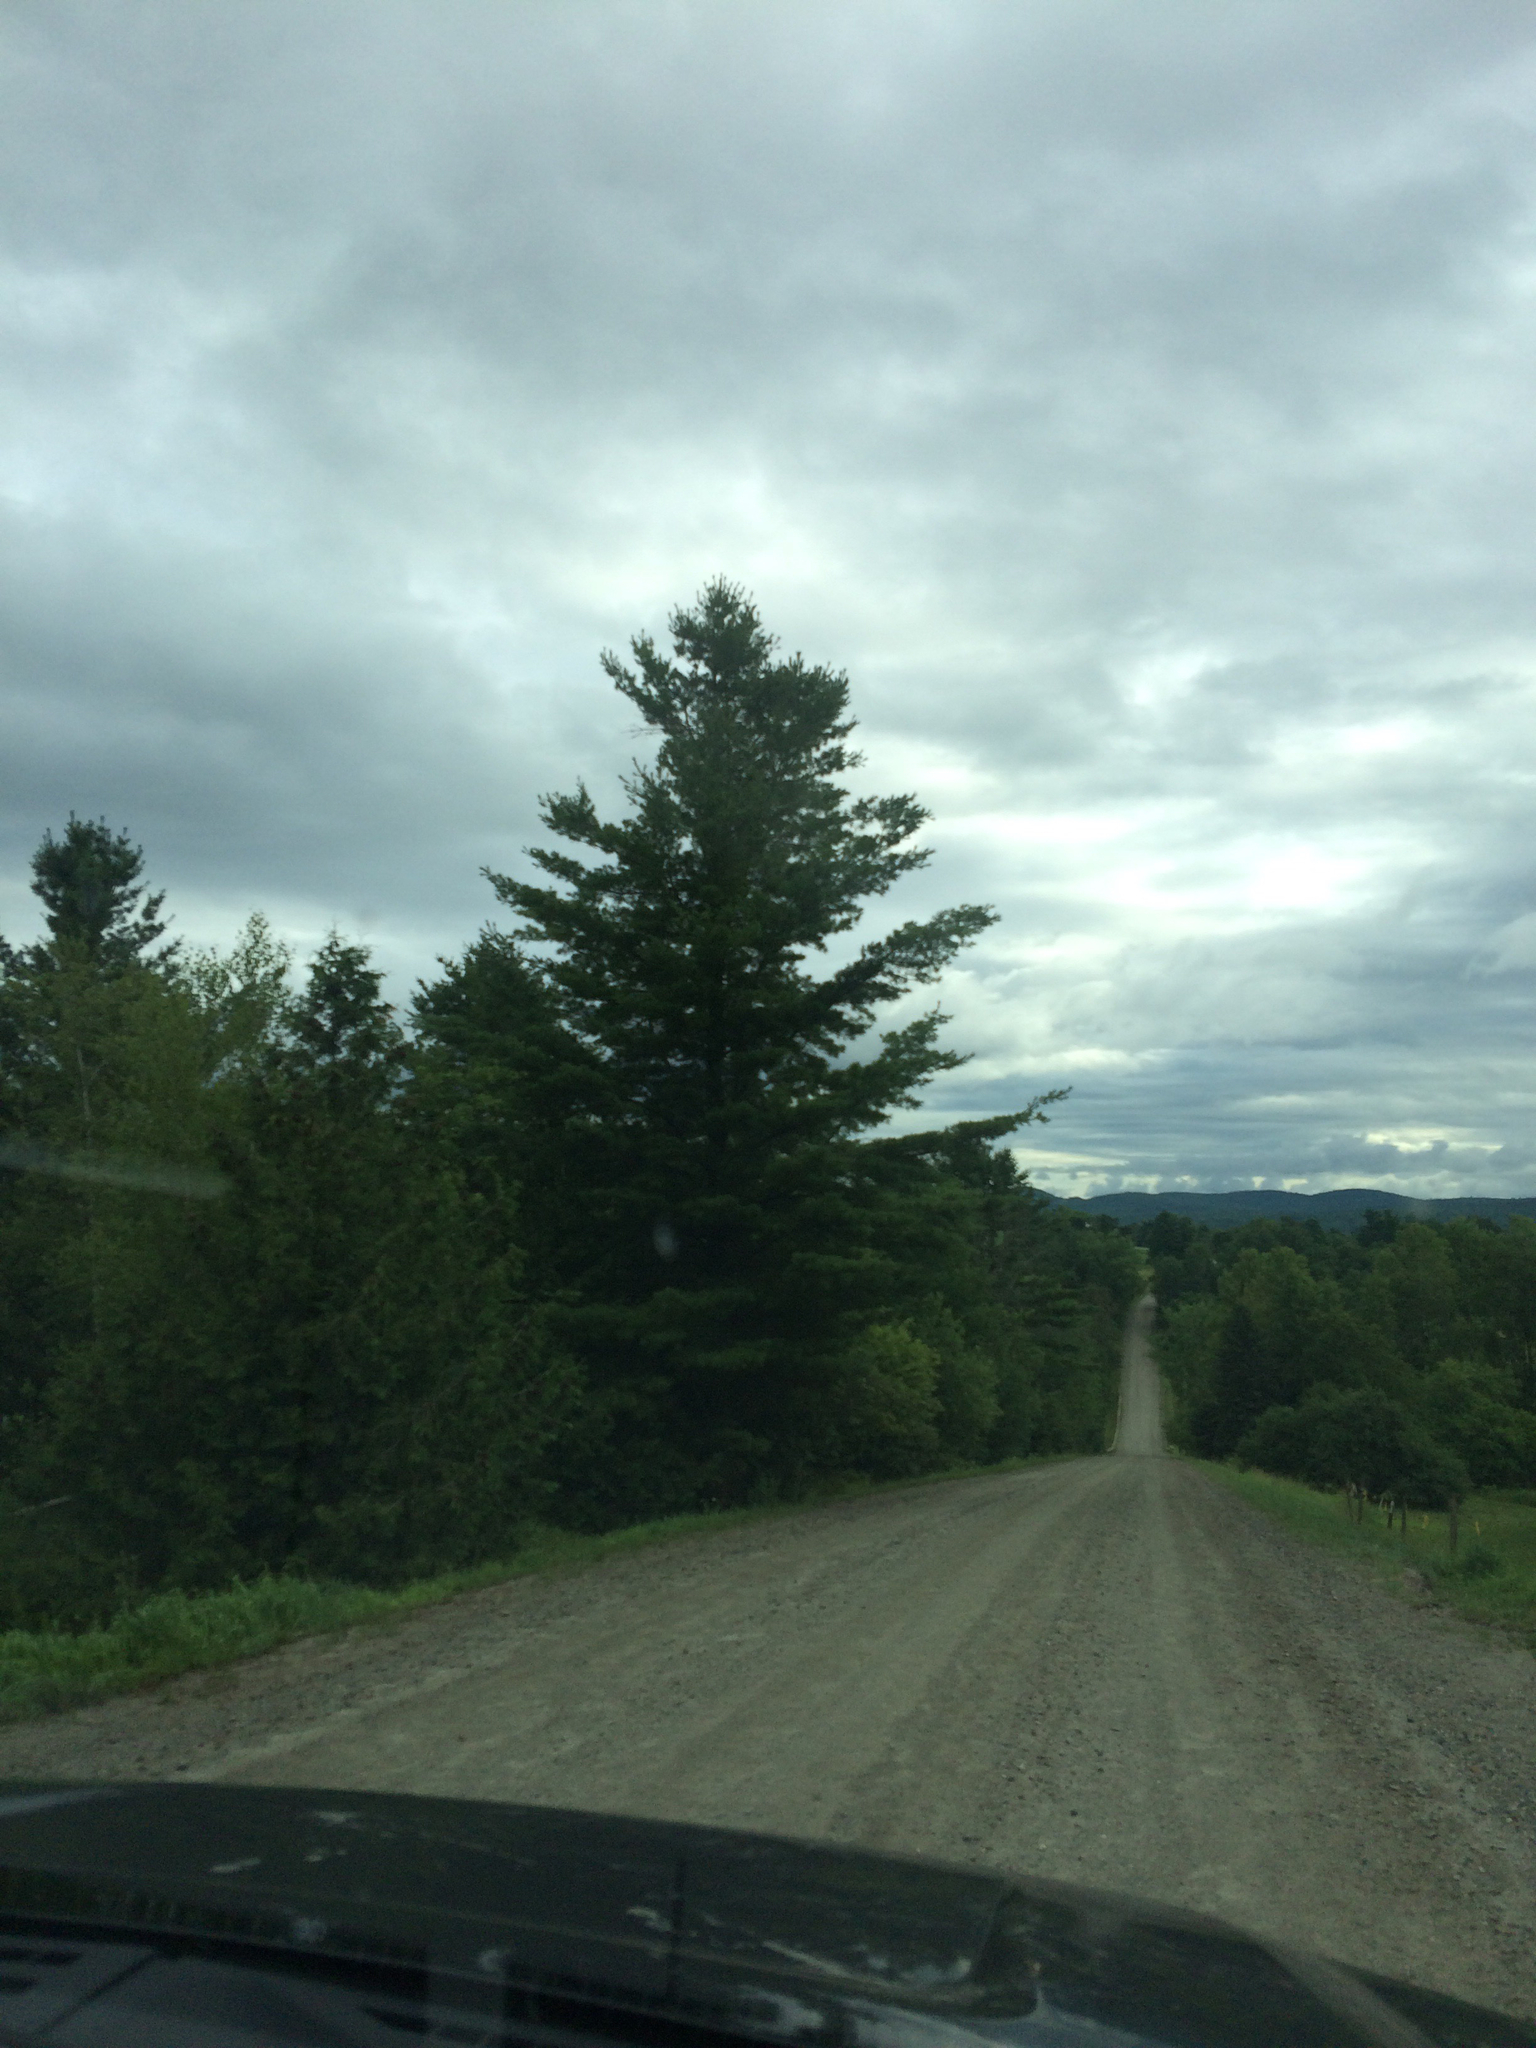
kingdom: Plantae
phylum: Tracheophyta
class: Pinopsida
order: Pinales
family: Pinaceae
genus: Pinus
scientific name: Pinus strobus
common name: Weymouth pine
